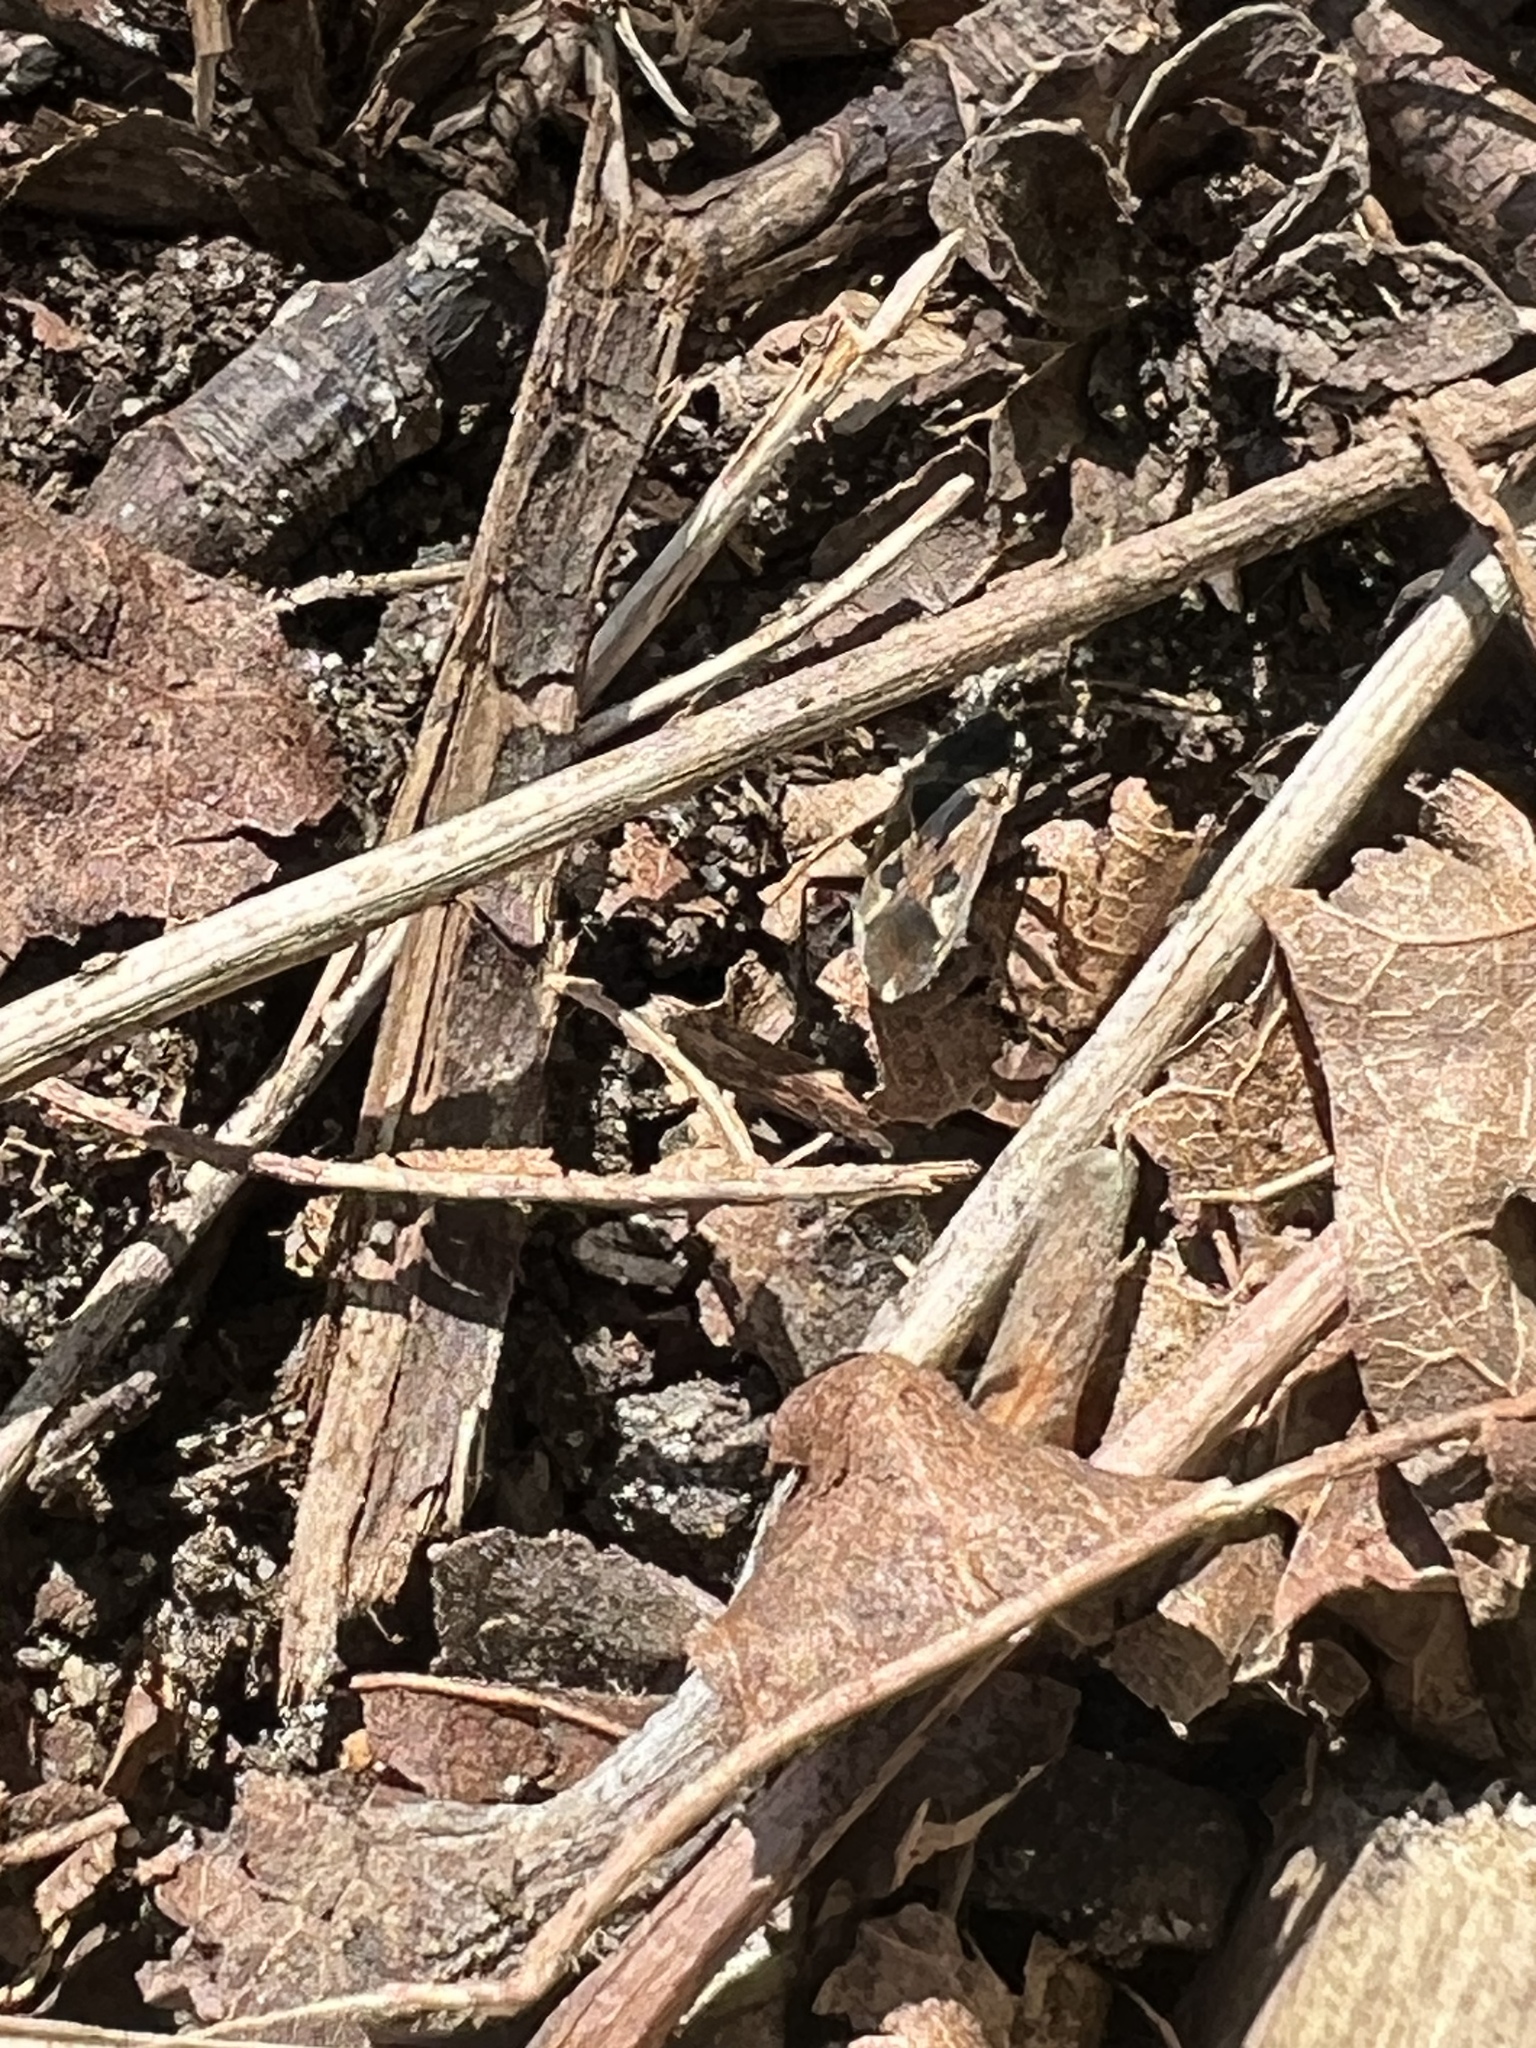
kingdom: Animalia
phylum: Arthropoda
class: Insecta
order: Hemiptera
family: Rhyparochromidae
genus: Rhyparochromus
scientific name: Rhyparochromus vulgaris
